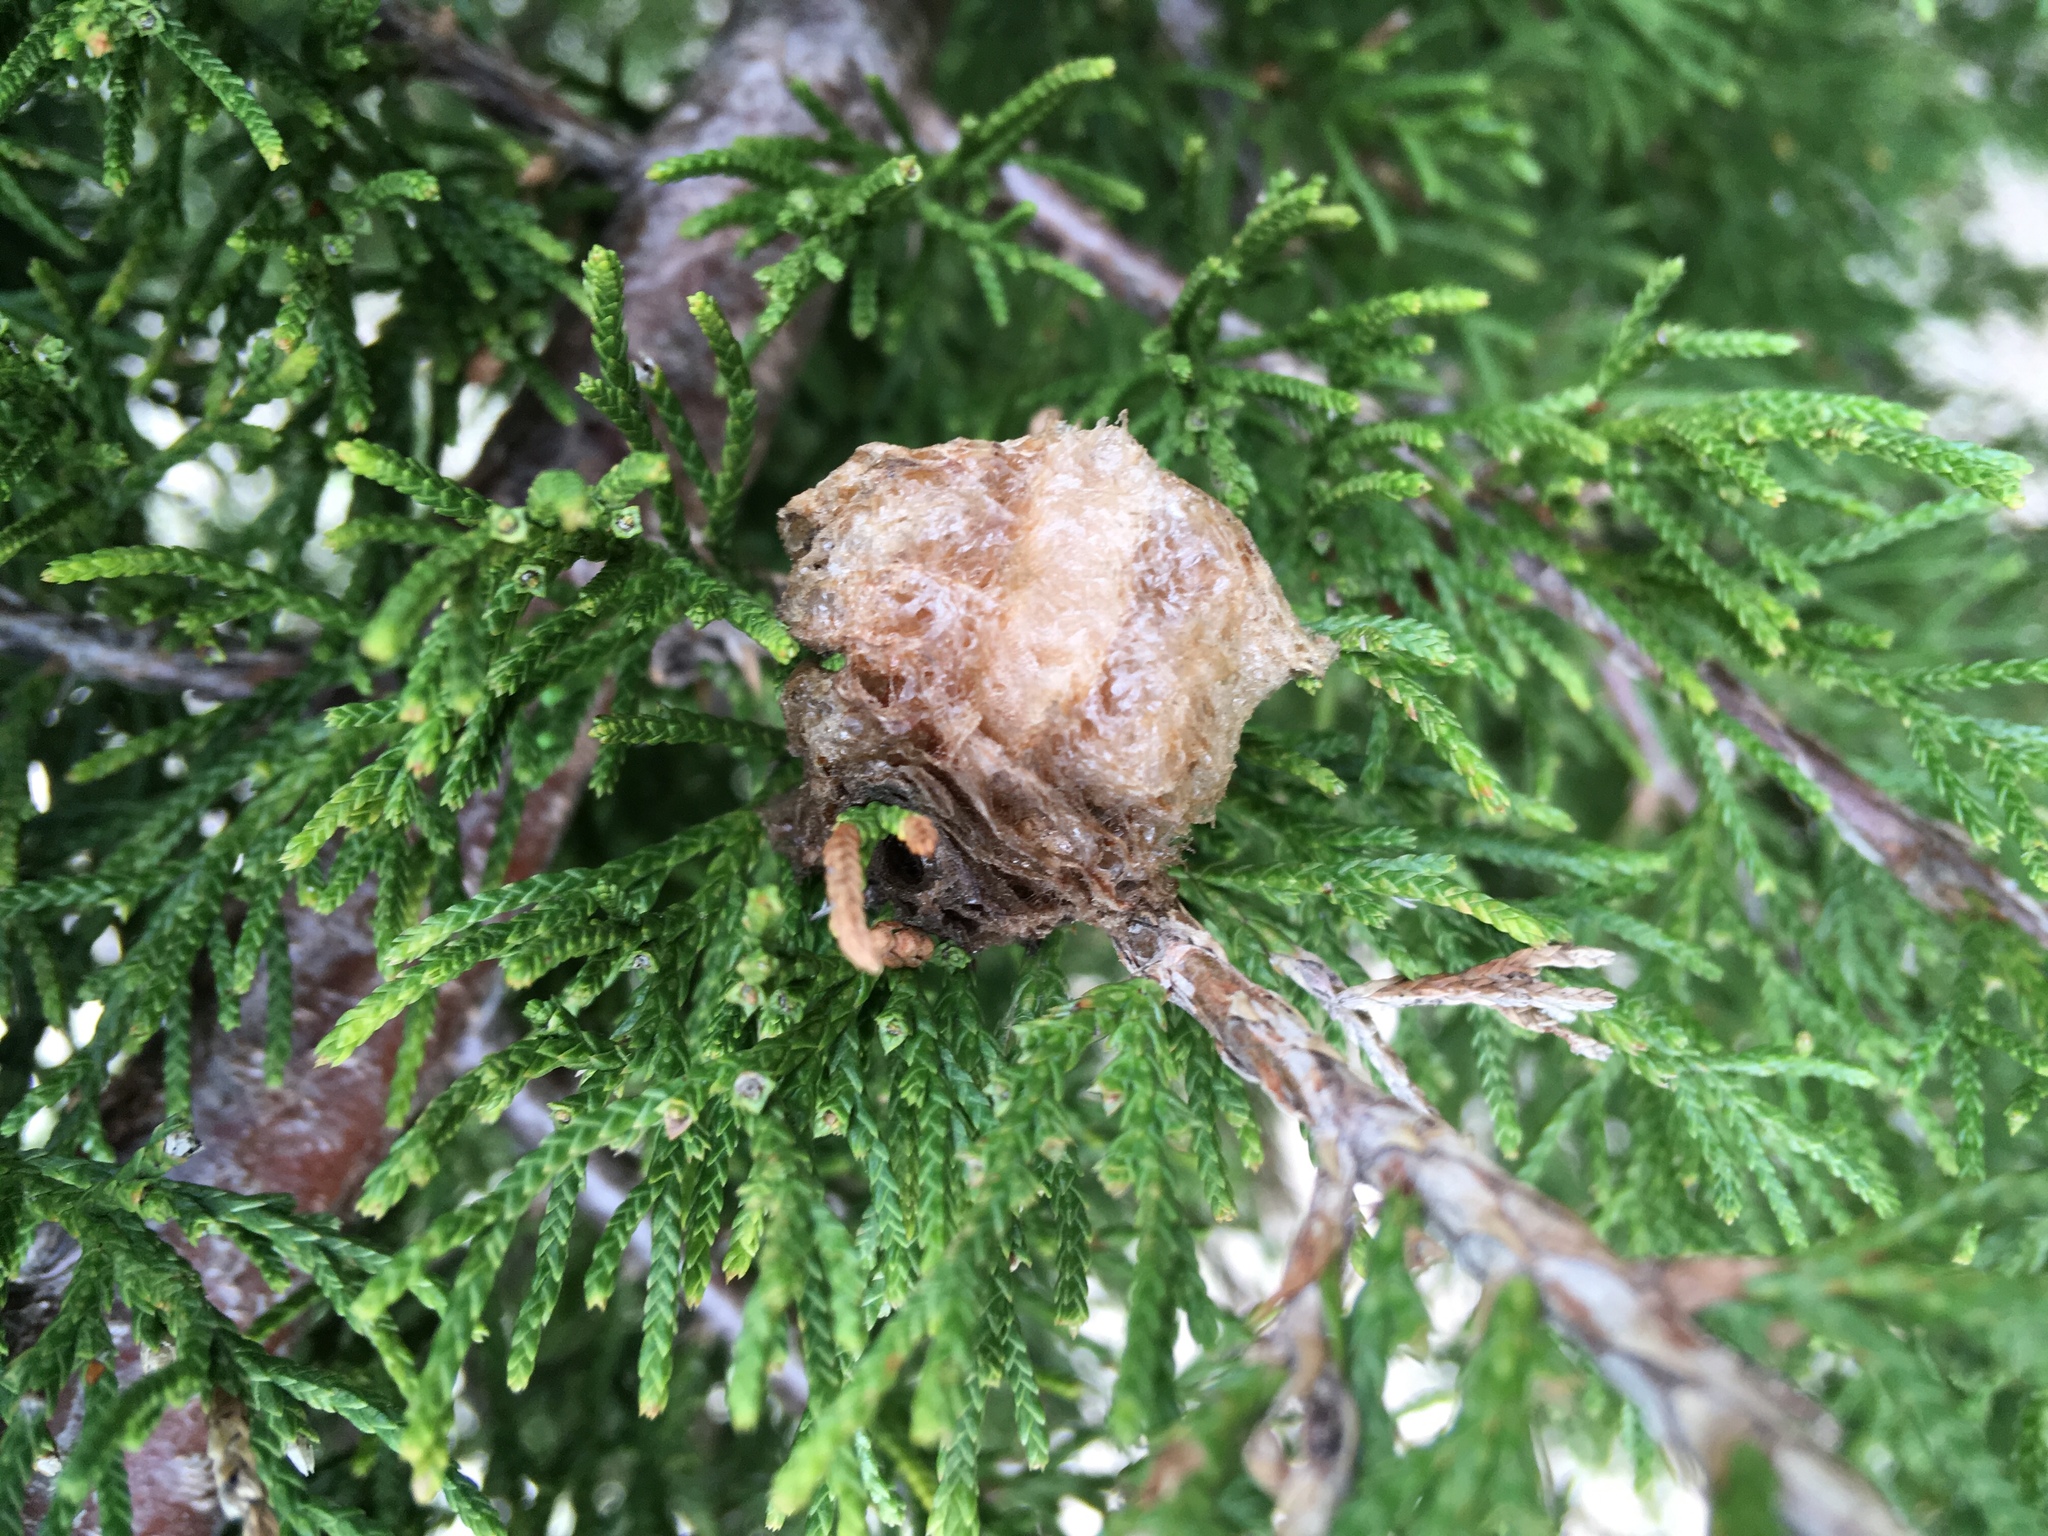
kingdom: Animalia
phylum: Arthropoda
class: Insecta
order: Mantodea
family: Mantidae
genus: Tenodera
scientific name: Tenodera sinensis
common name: Chinese mantis
